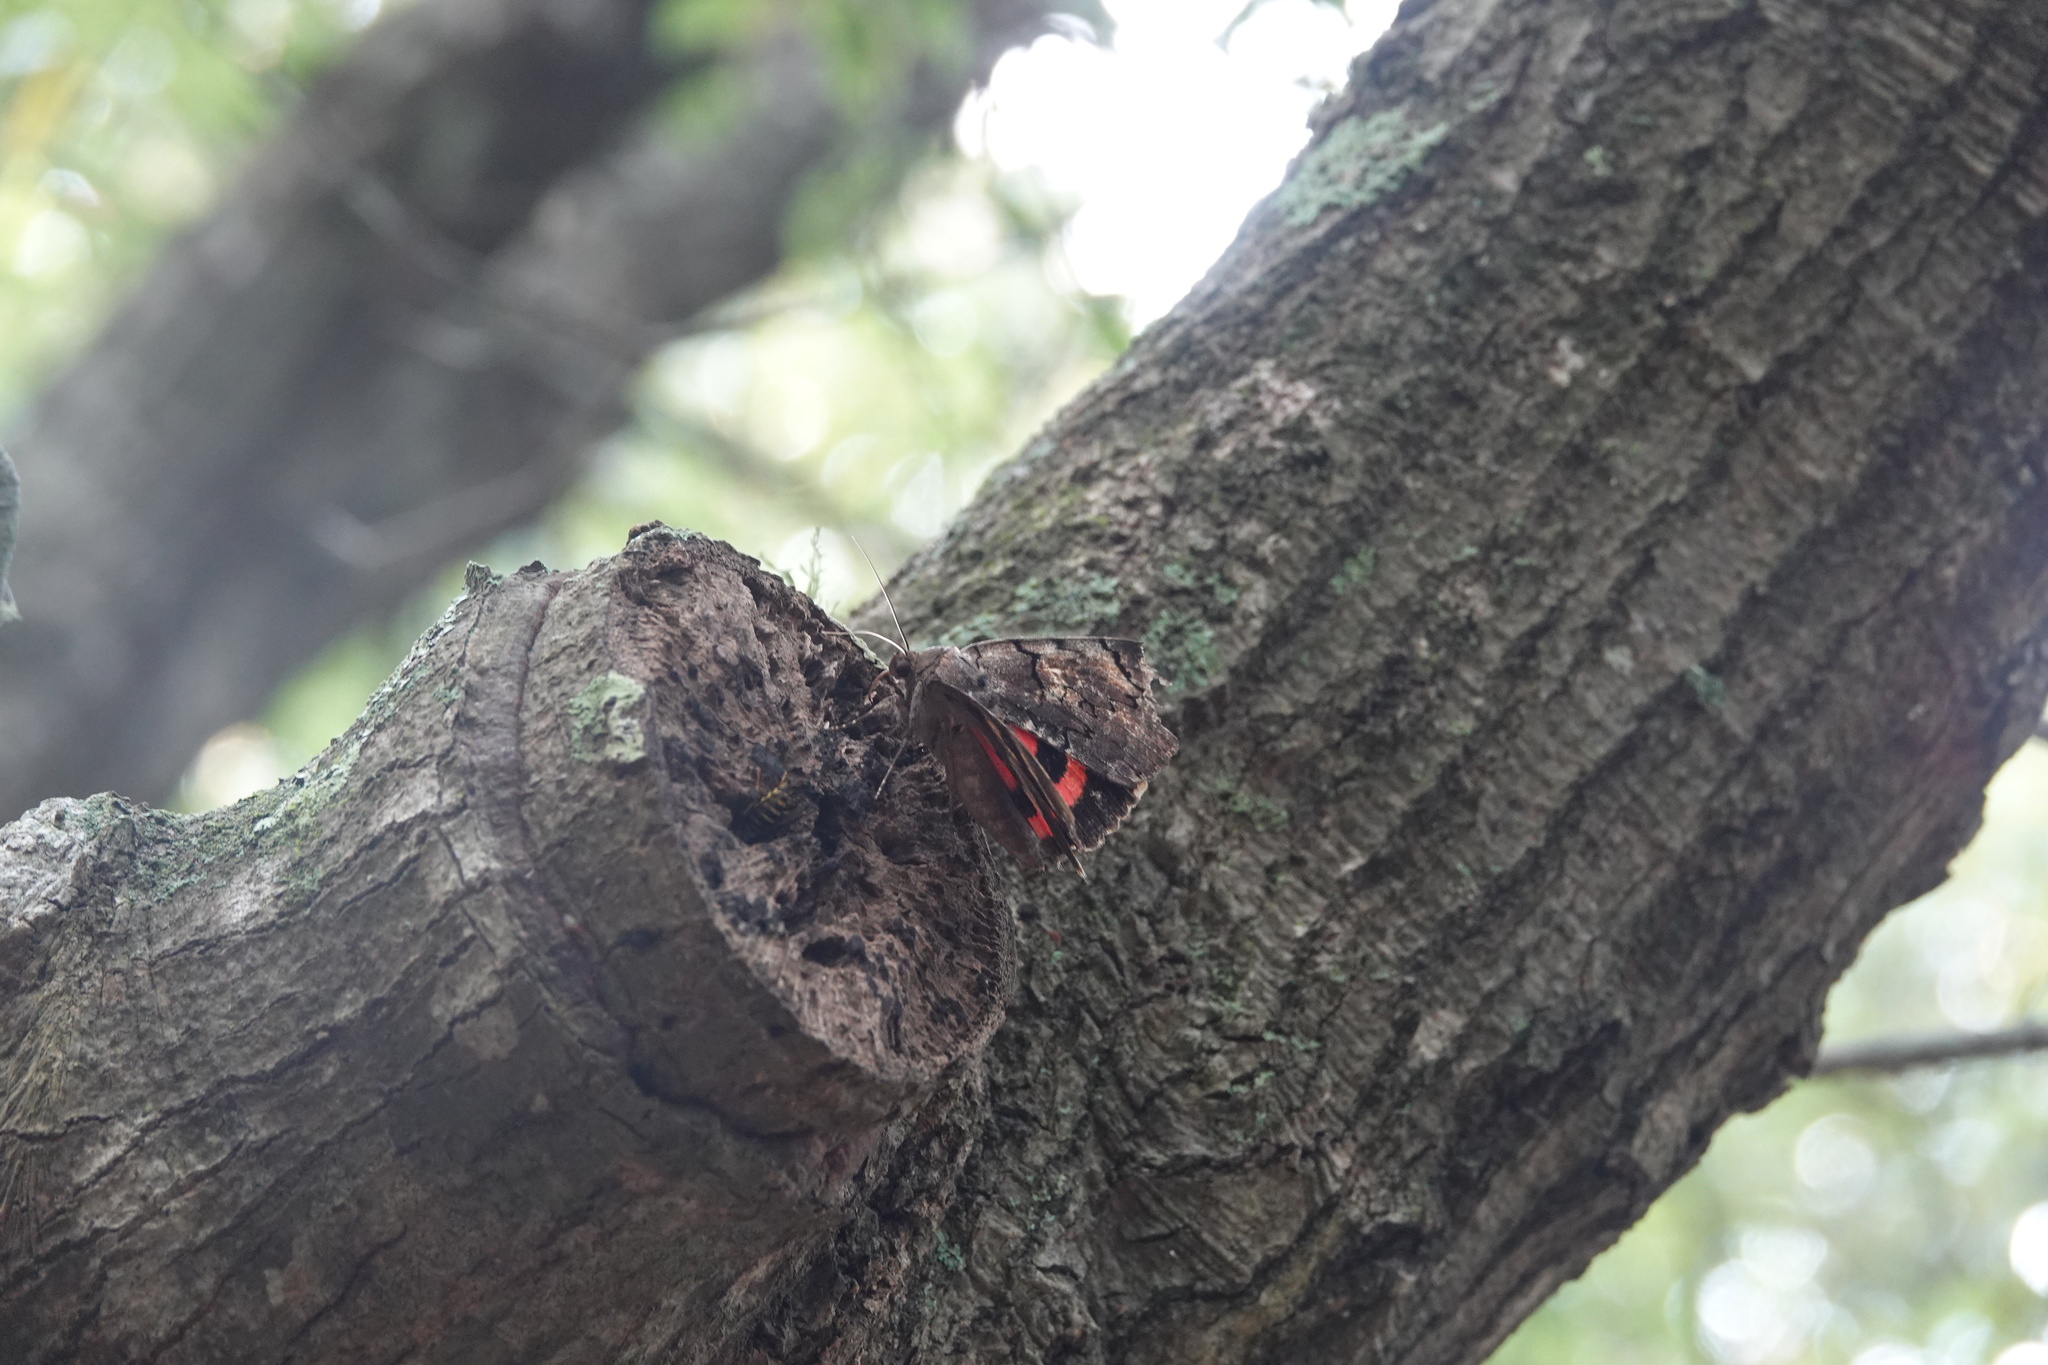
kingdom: Animalia
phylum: Arthropoda
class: Insecta
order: Lepidoptera
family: Erebidae
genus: Catocala
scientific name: Catocala carissima
